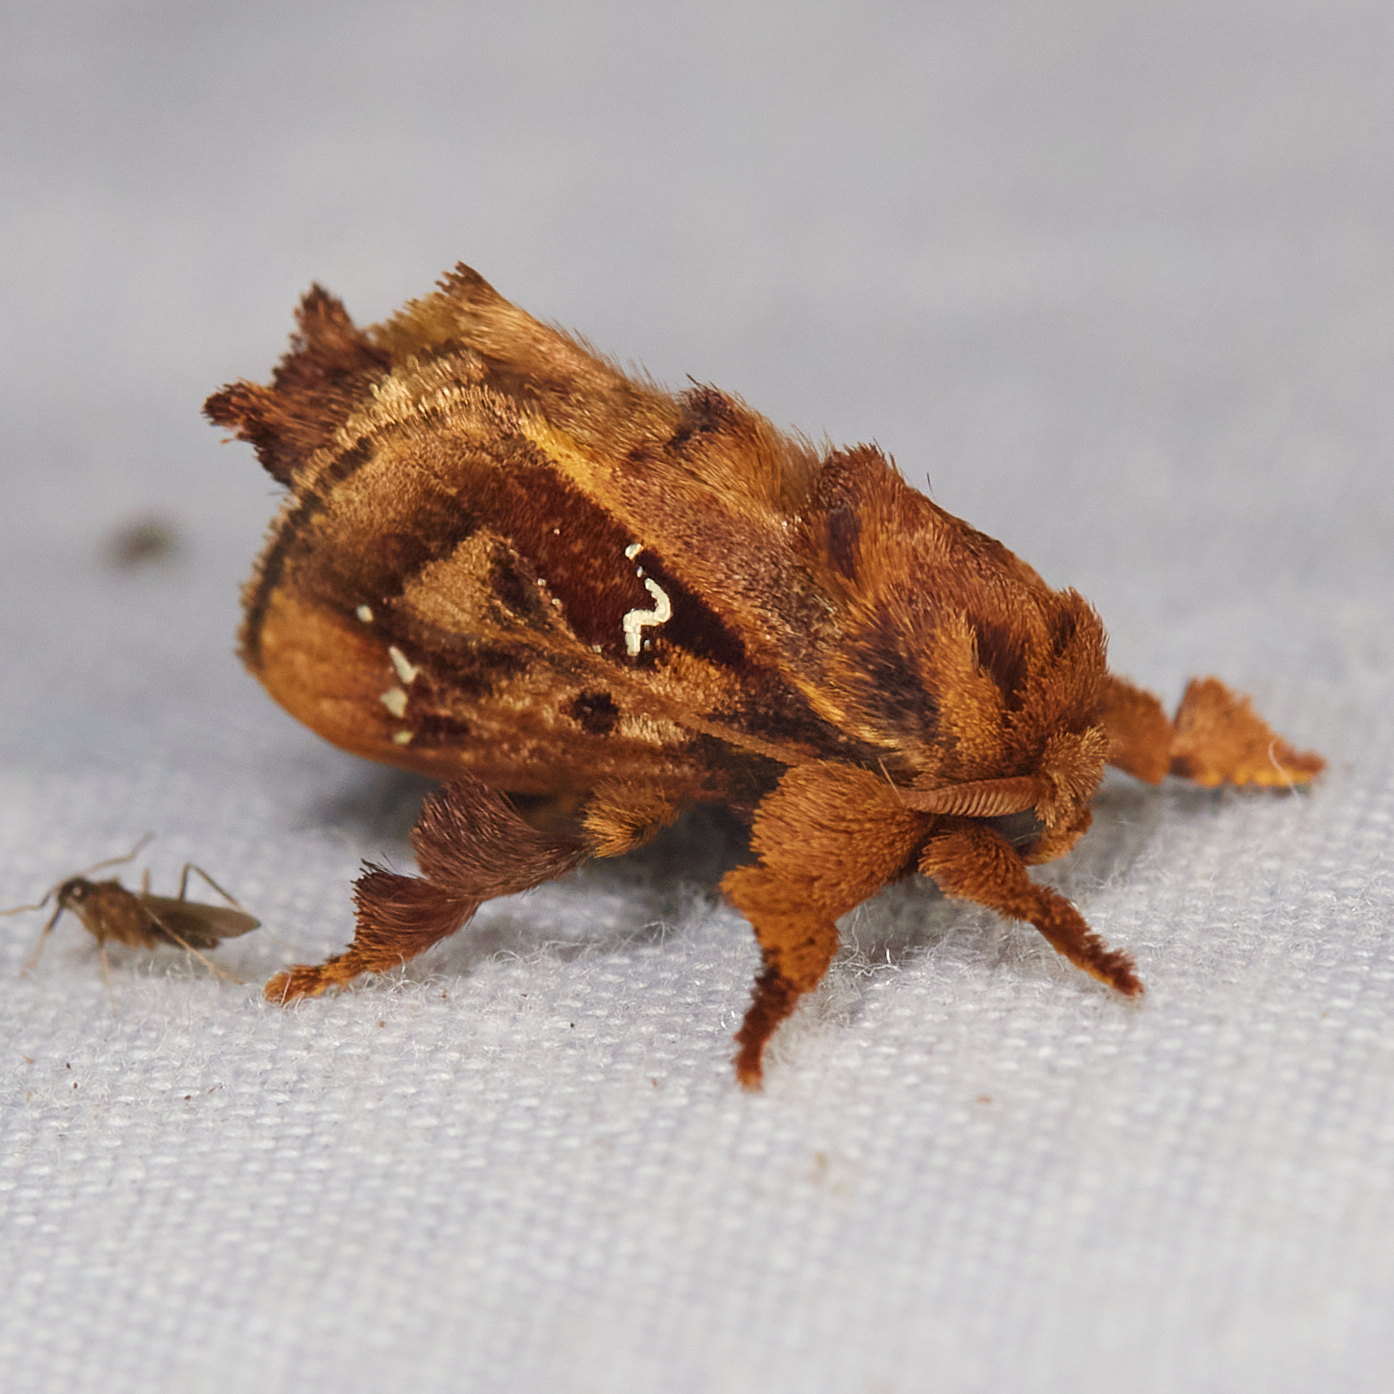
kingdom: Animalia
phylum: Arthropoda
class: Insecta
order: Lepidoptera
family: Limacodidae
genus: Euclea
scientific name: Euclea buscki
